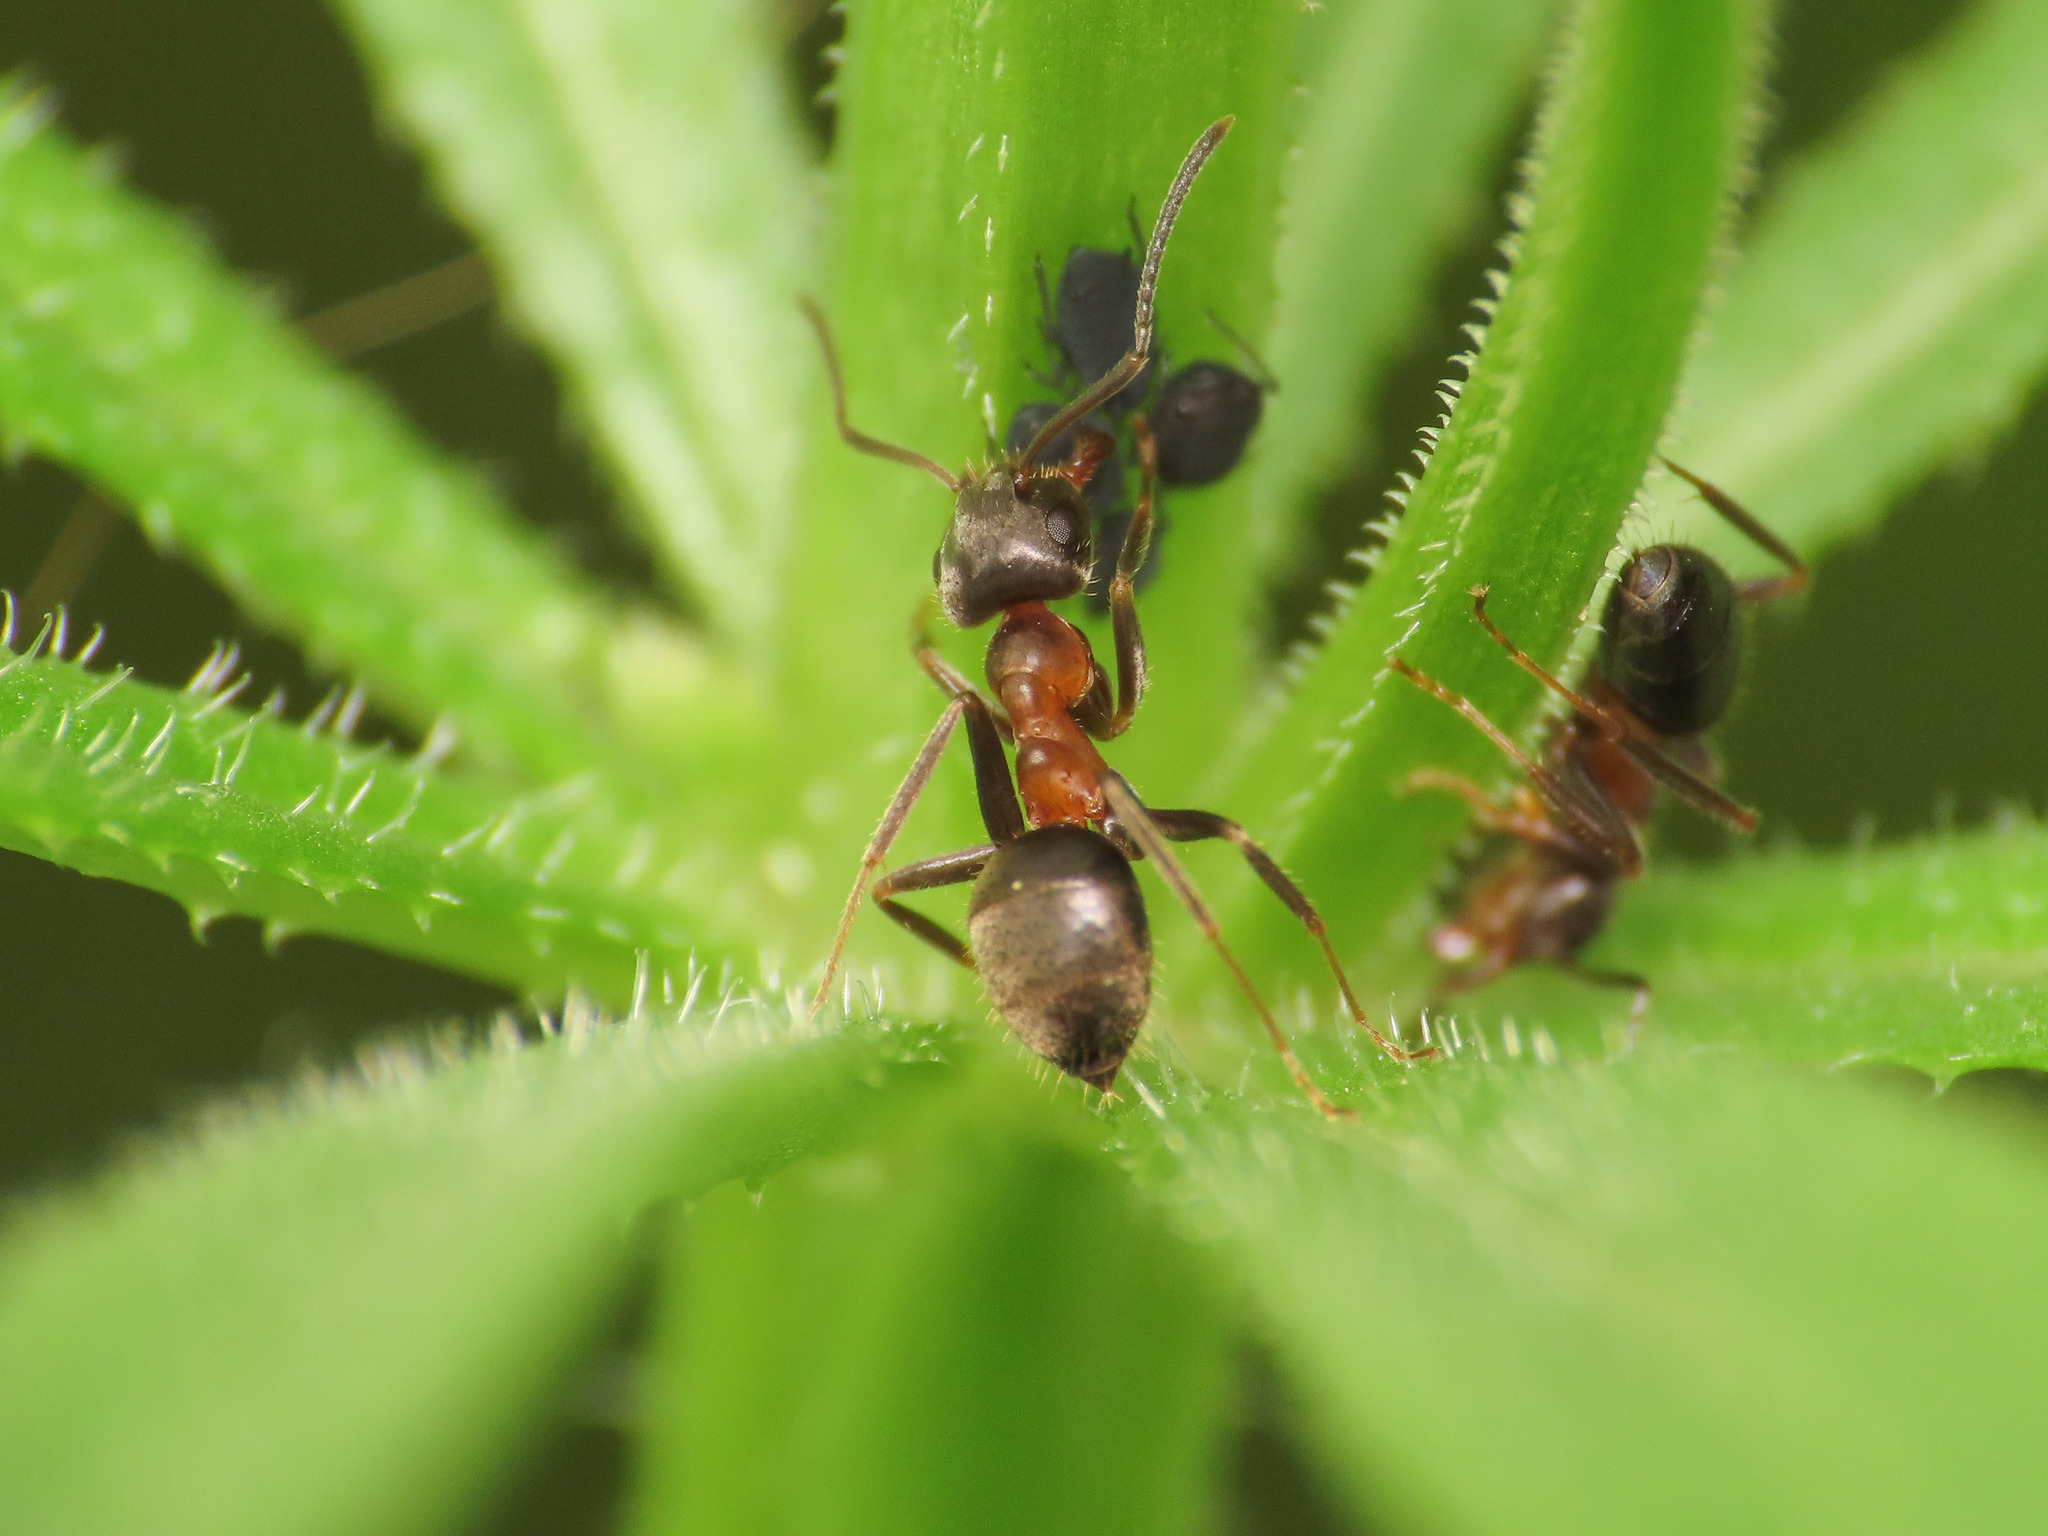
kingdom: Animalia
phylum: Arthropoda
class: Insecta
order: Hymenoptera
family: Formicidae
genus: Lasius
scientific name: Lasius emarginatus
